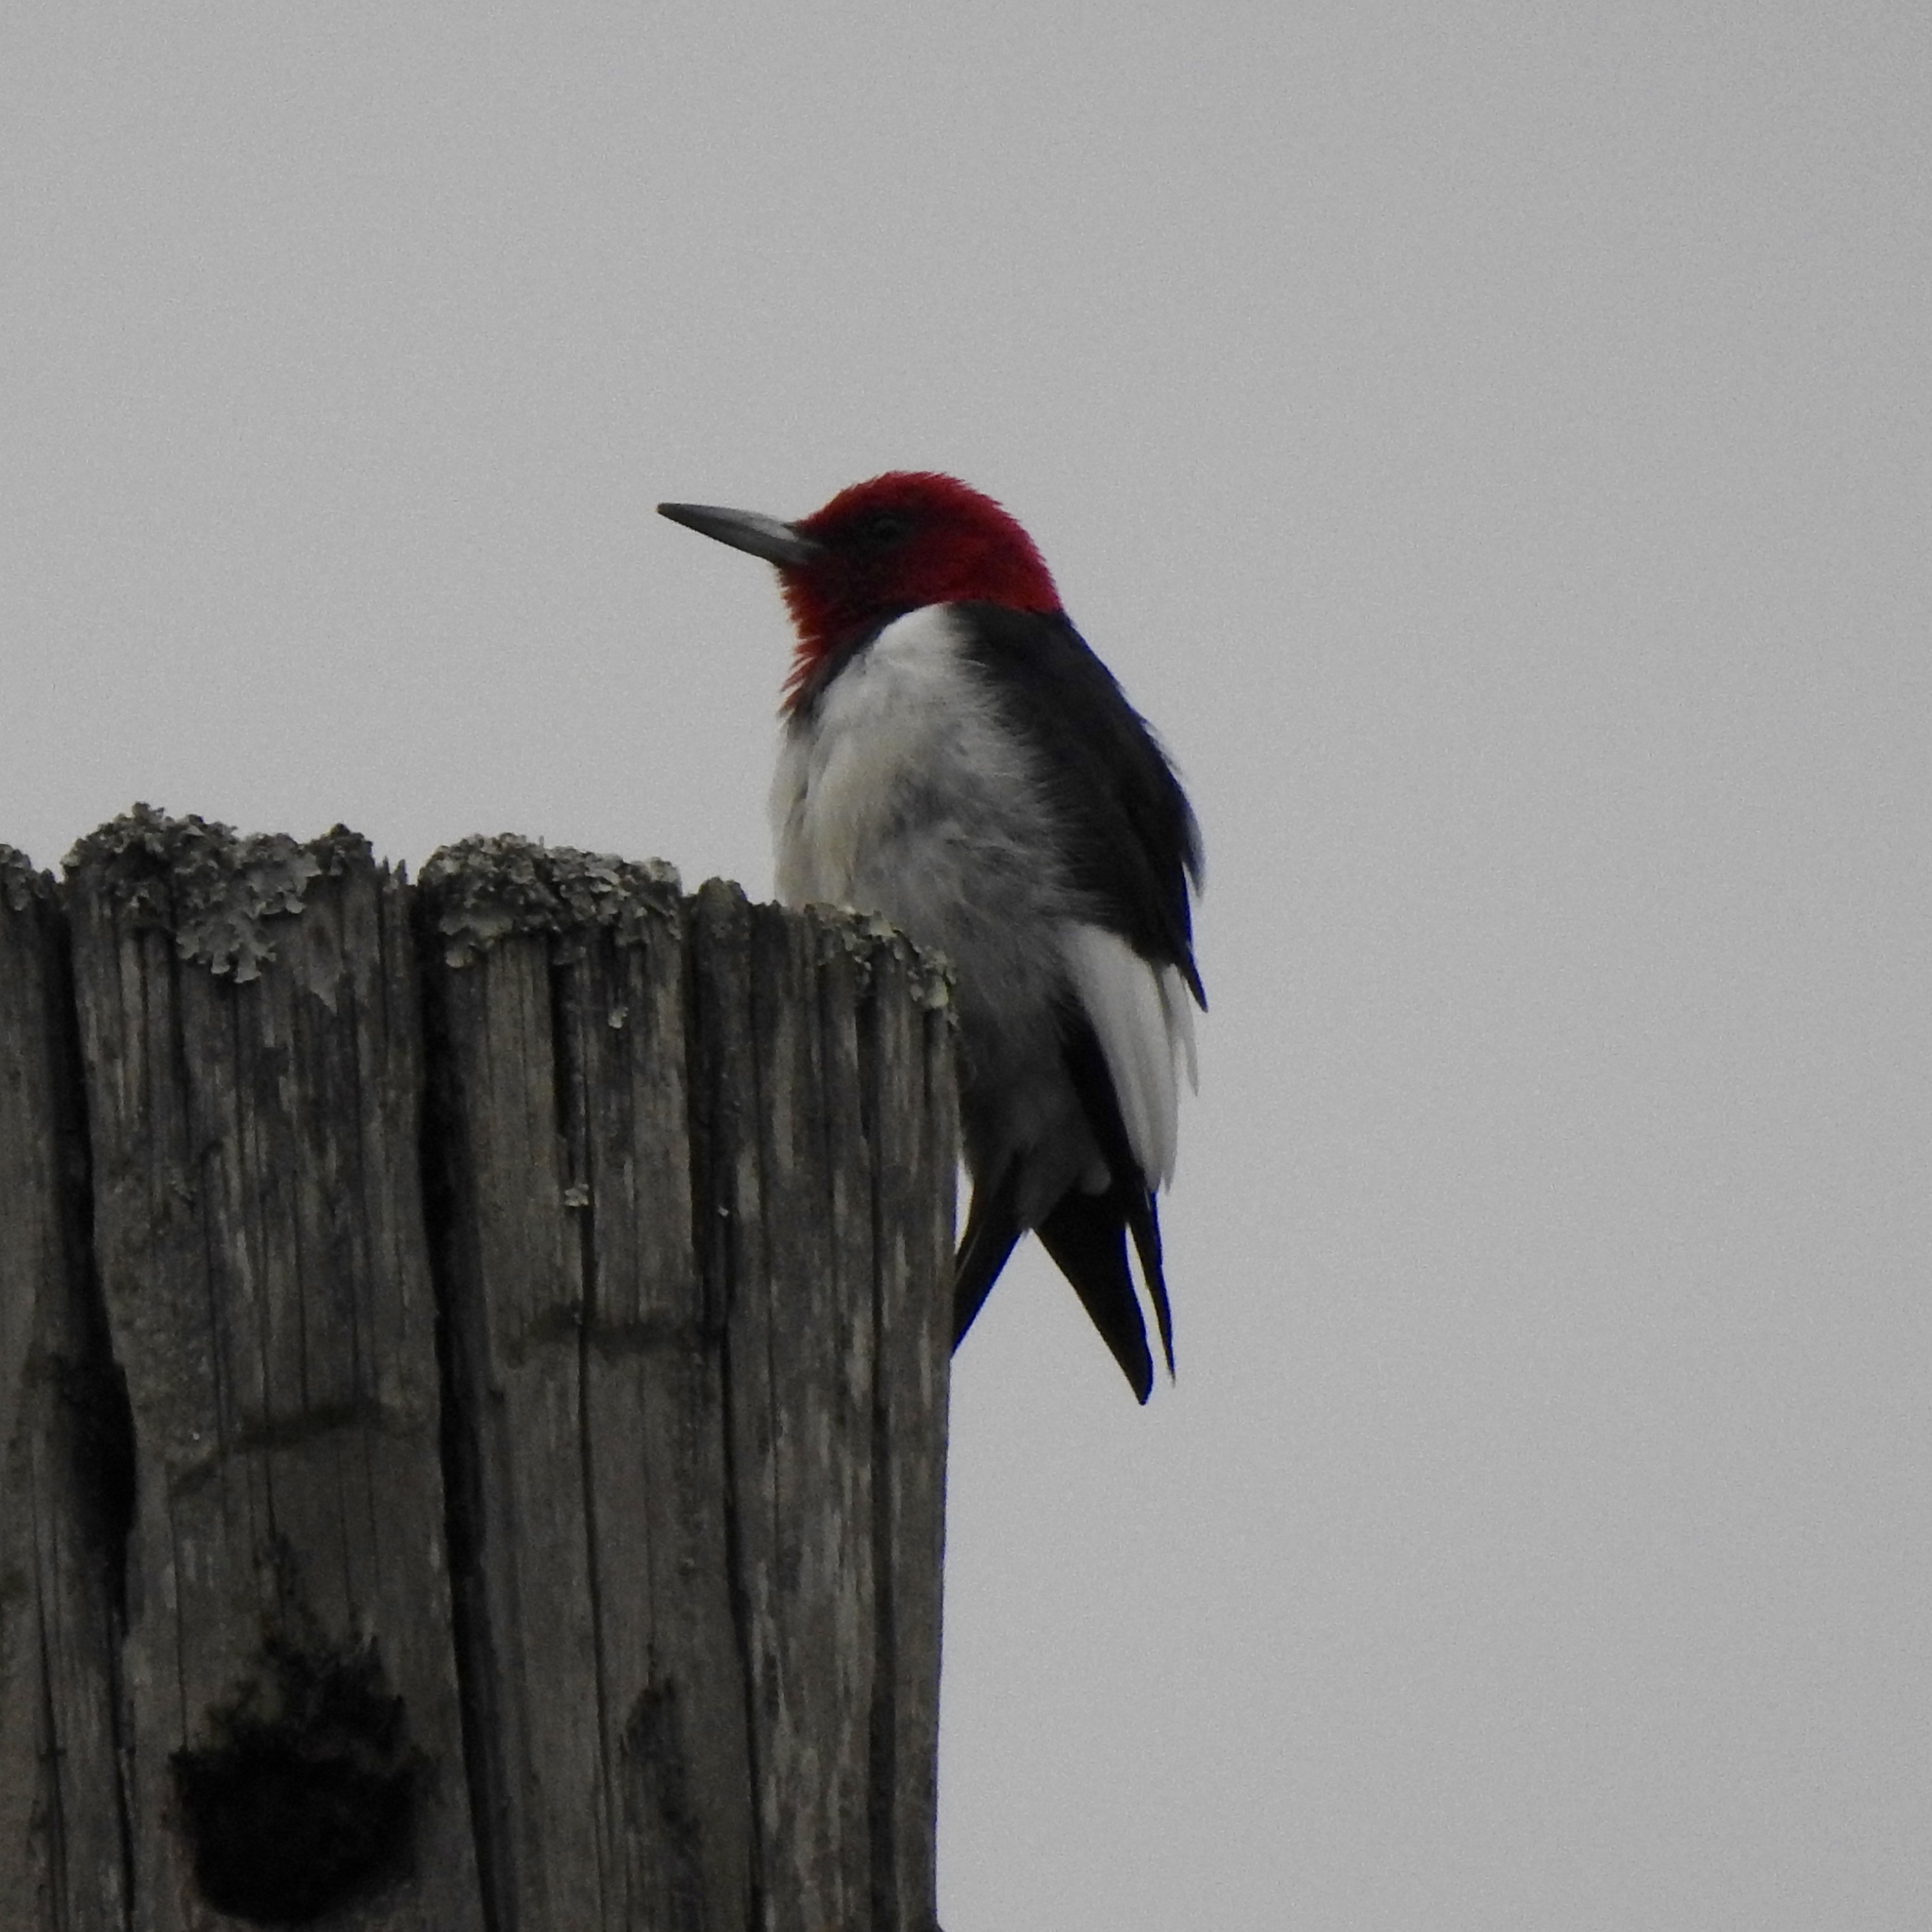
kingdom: Animalia
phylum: Chordata
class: Aves
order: Piciformes
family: Picidae
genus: Melanerpes
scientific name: Melanerpes erythrocephalus
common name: Red-headed woodpecker
